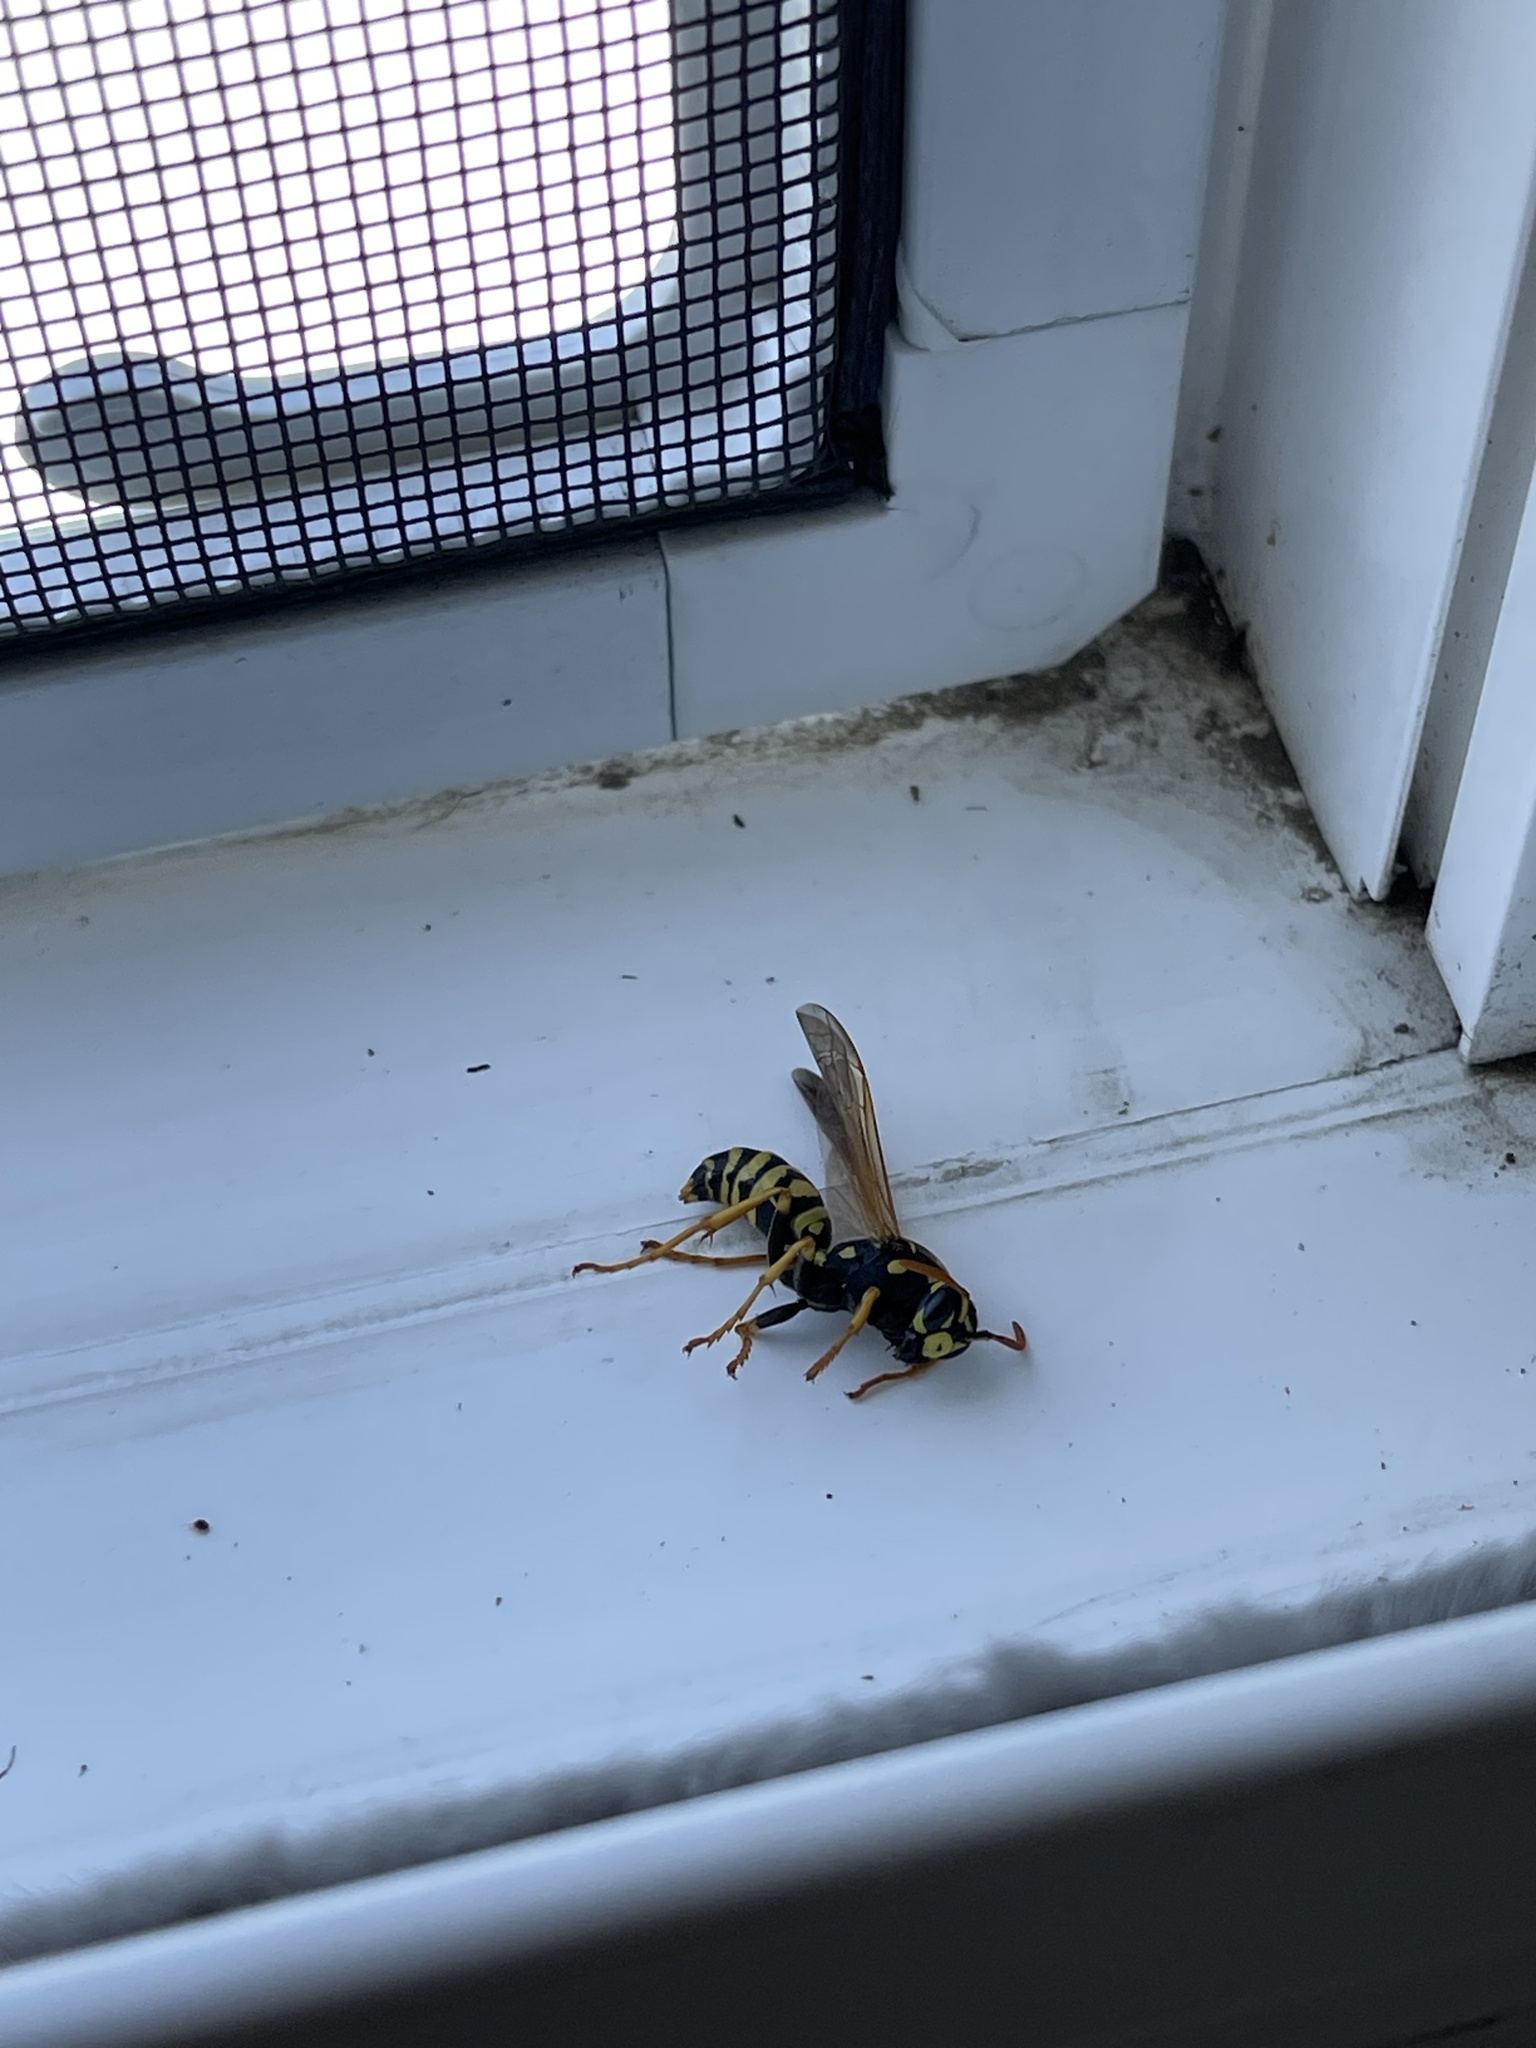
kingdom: Animalia
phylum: Arthropoda
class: Insecta
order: Hymenoptera
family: Eumenidae
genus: Polistes
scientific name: Polistes dominula
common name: Paper wasp
